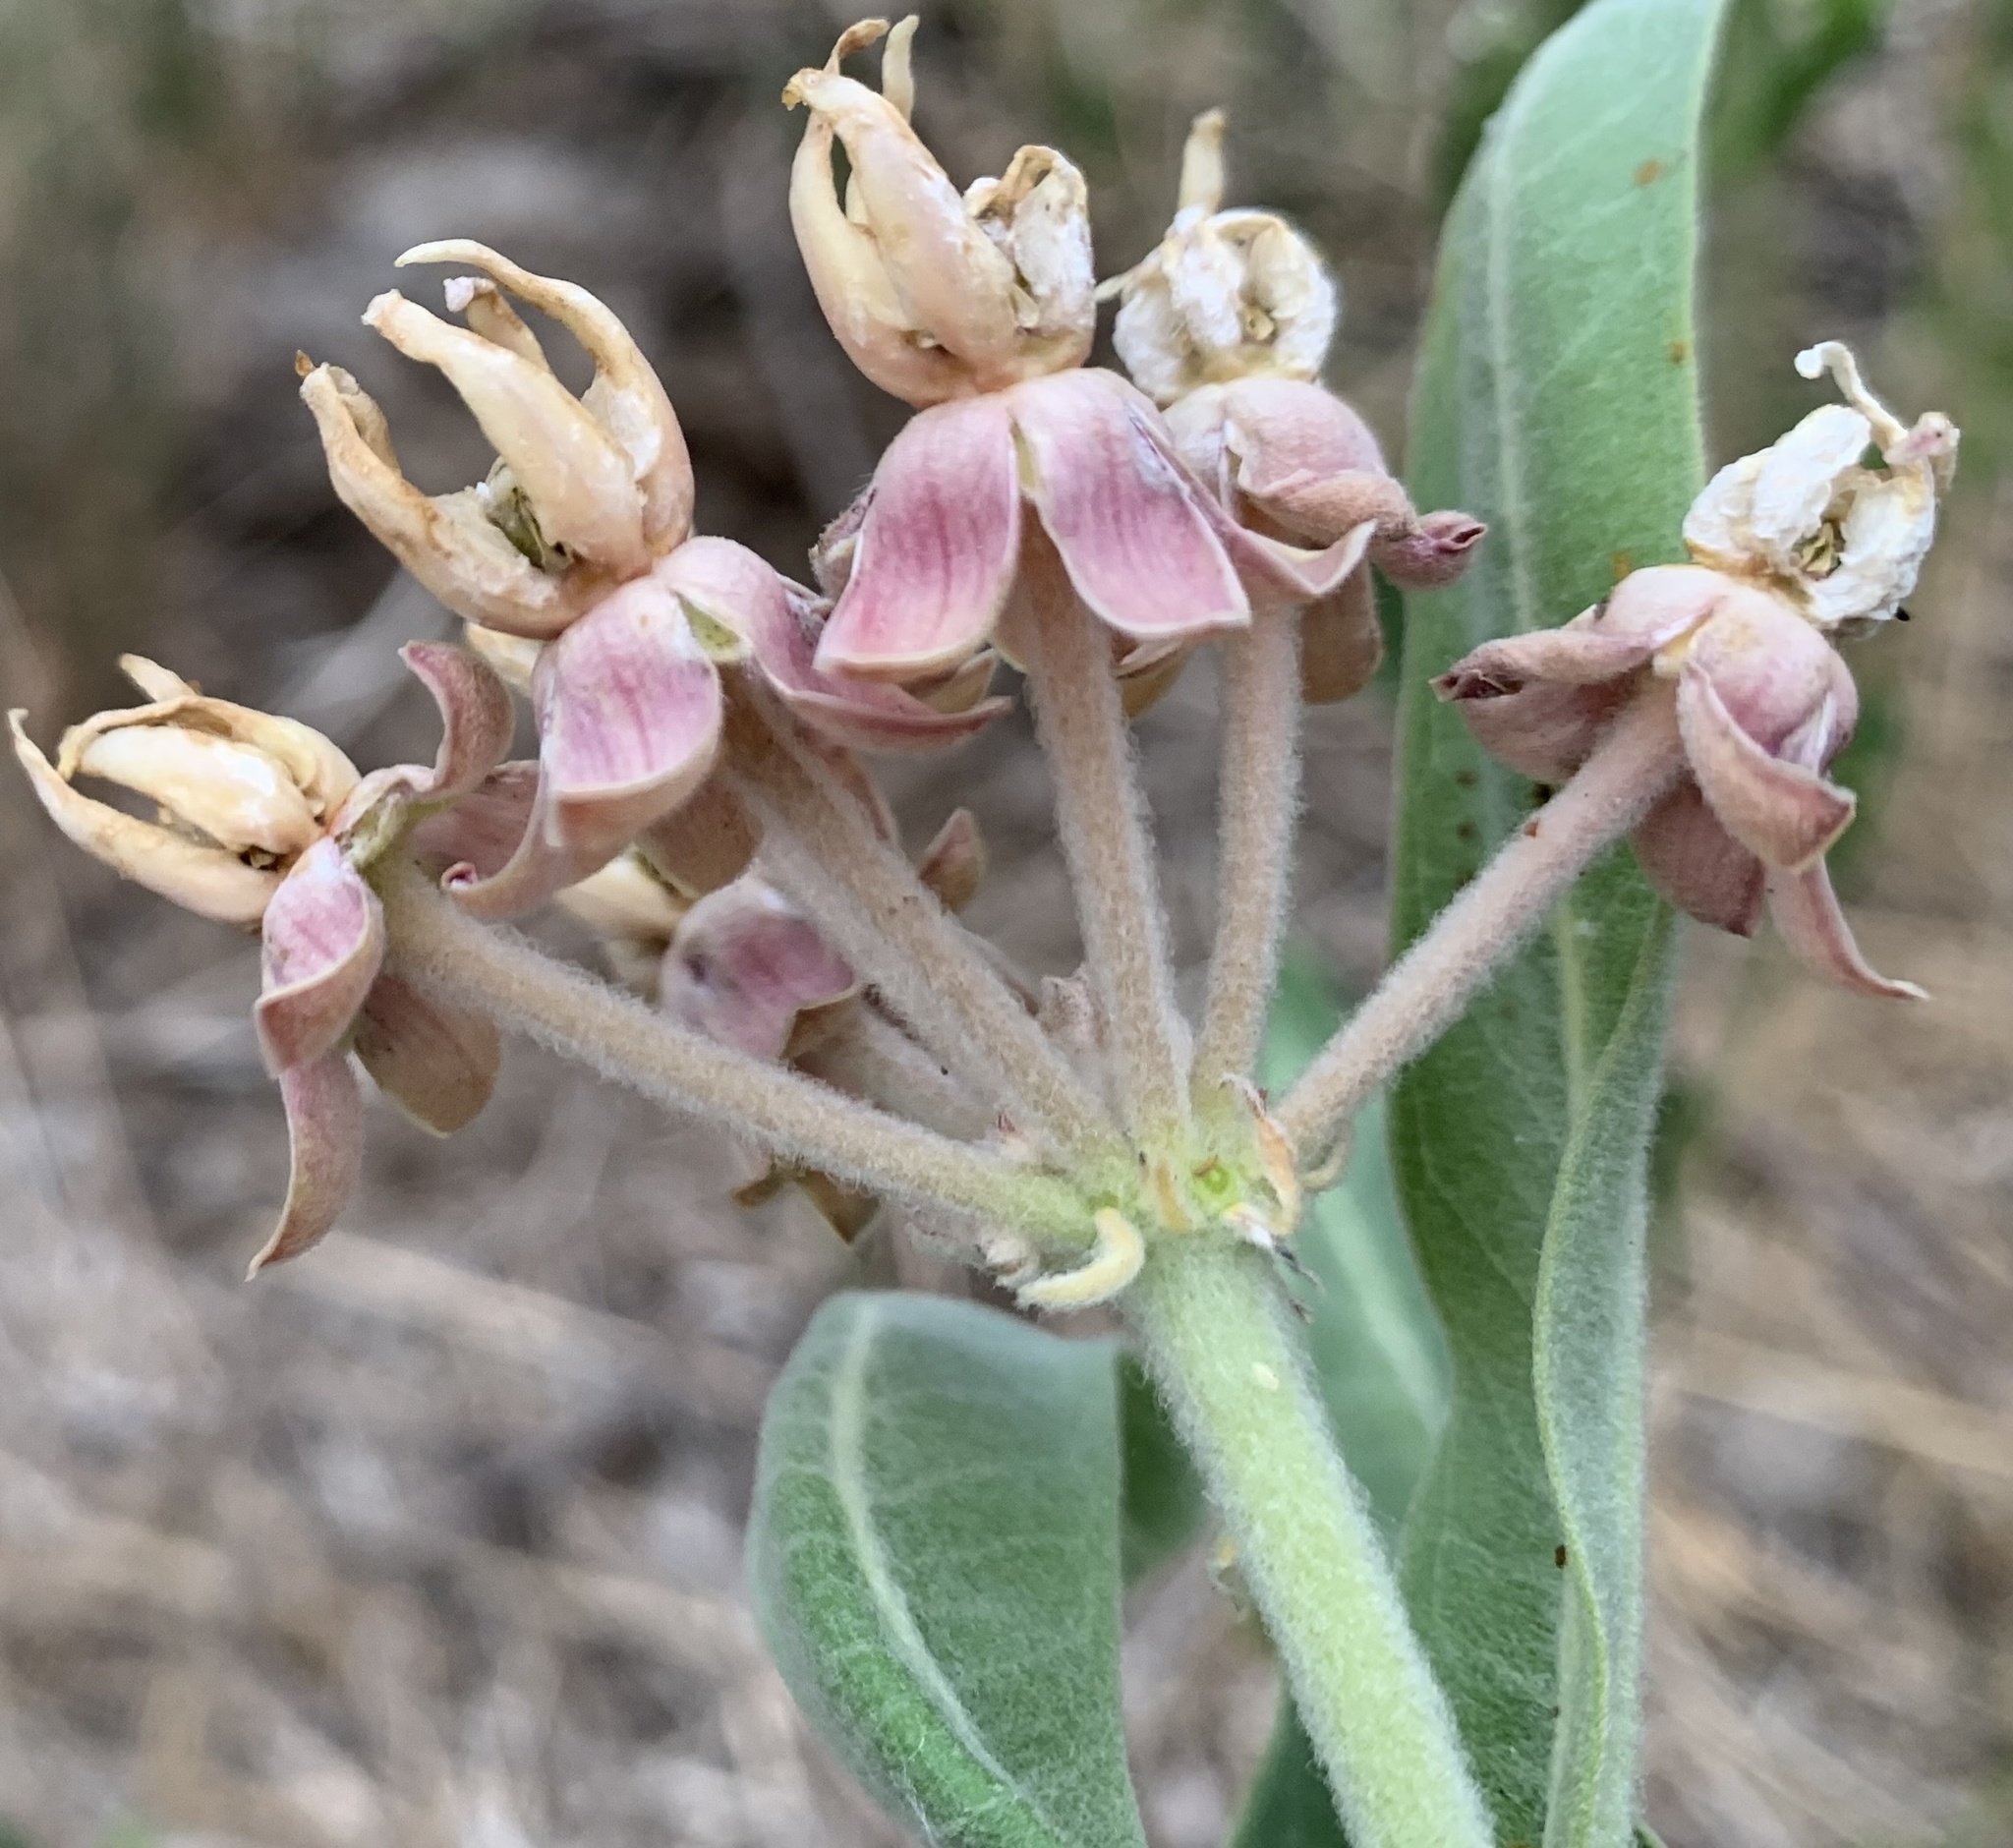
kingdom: Plantae
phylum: Tracheophyta
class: Magnoliopsida
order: Gentianales
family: Apocynaceae
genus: Asclepias
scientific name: Asclepias speciosa
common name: Showy milkweed
